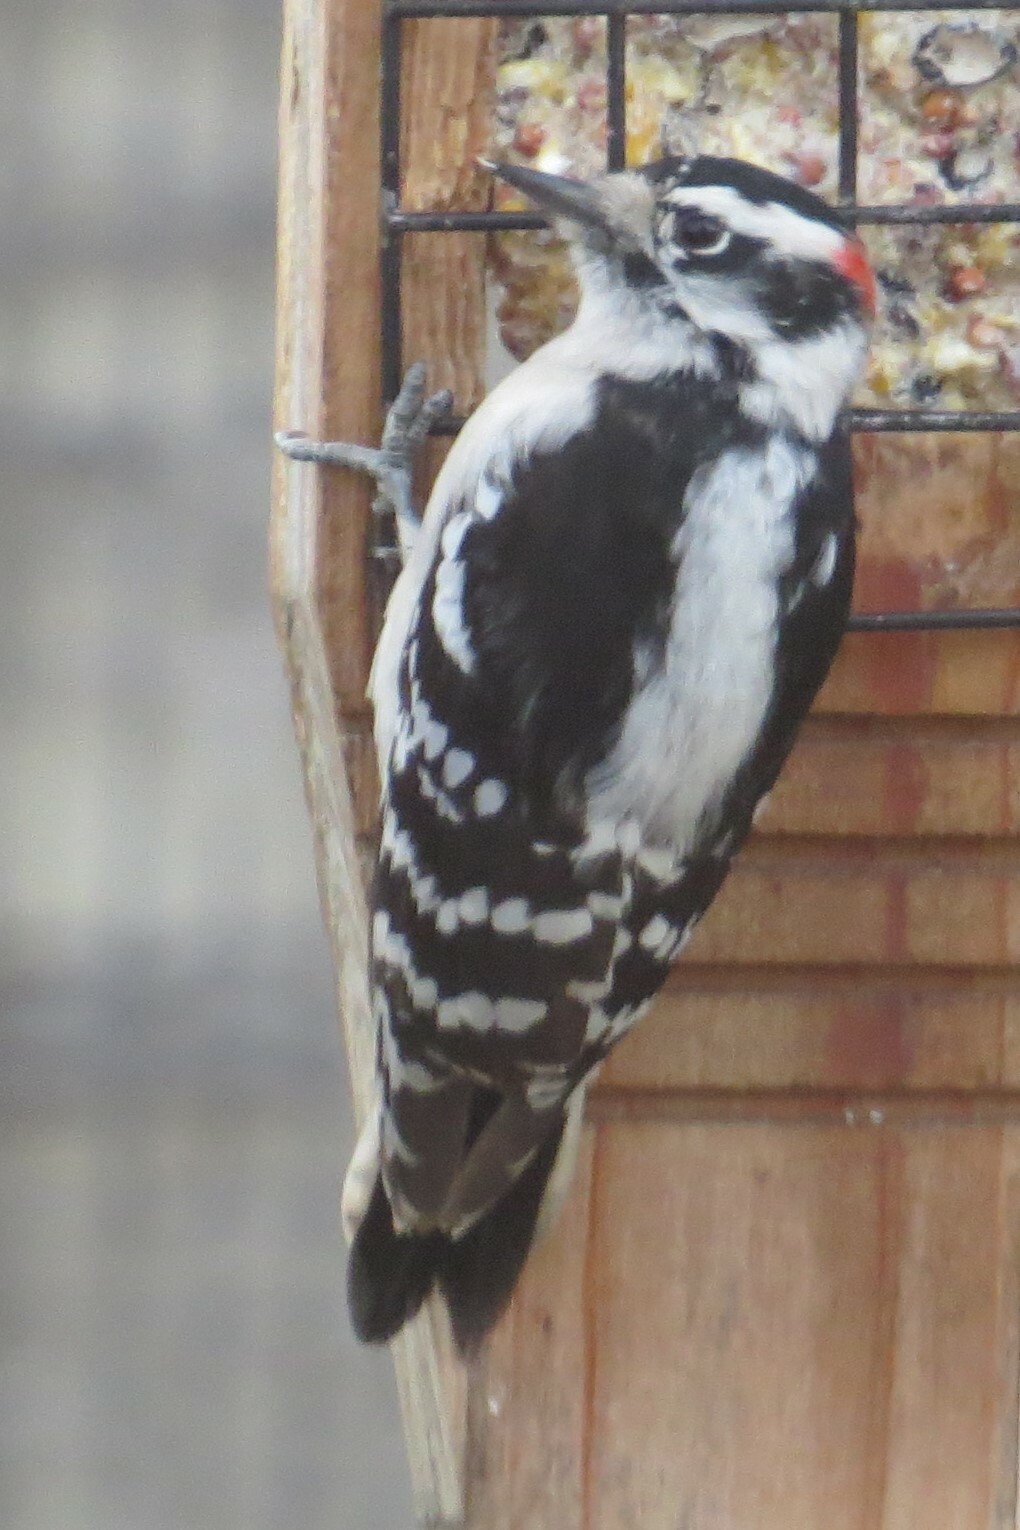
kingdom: Animalia
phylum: Chordata
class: Aves
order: Piciformes
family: Picidae
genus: Dryobates
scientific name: Dryobates pubescens
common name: Downy woodpecker
